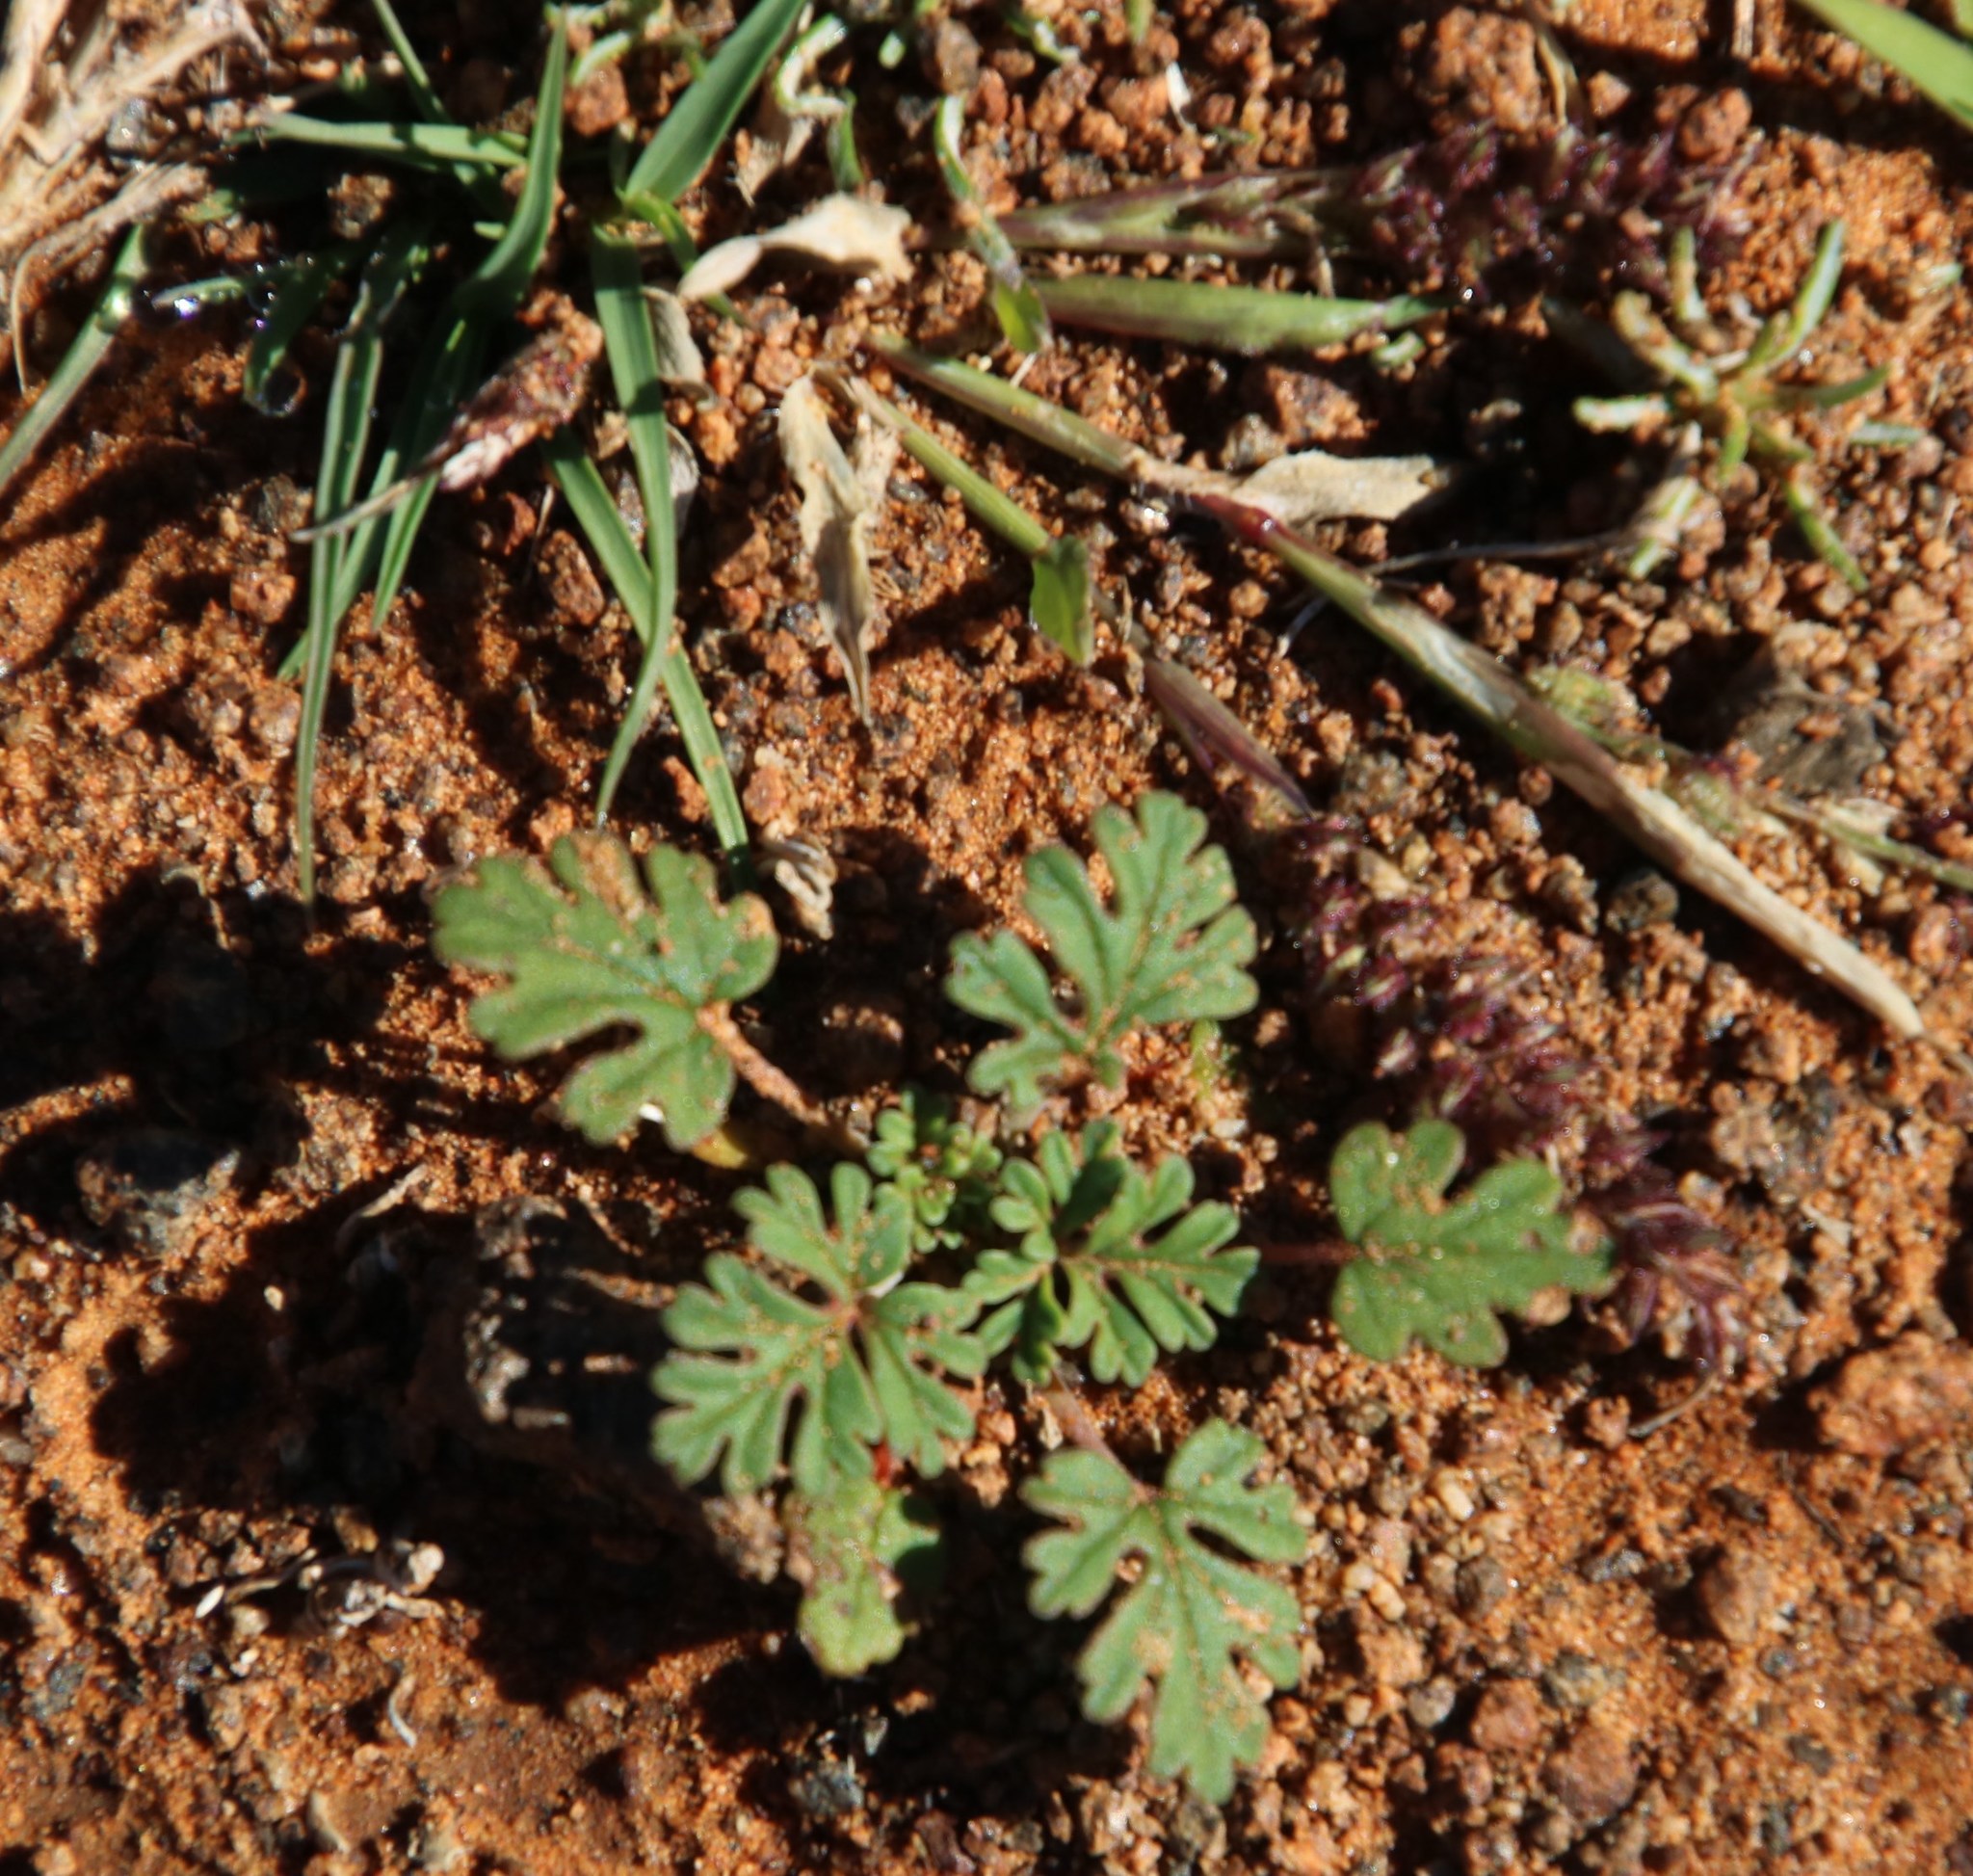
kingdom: Plantae
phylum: Tracheophyta
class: Magnoliopsida
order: Geraniales
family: Geraniaceae
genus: Pelargonium
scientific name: Pelargonium minimum
